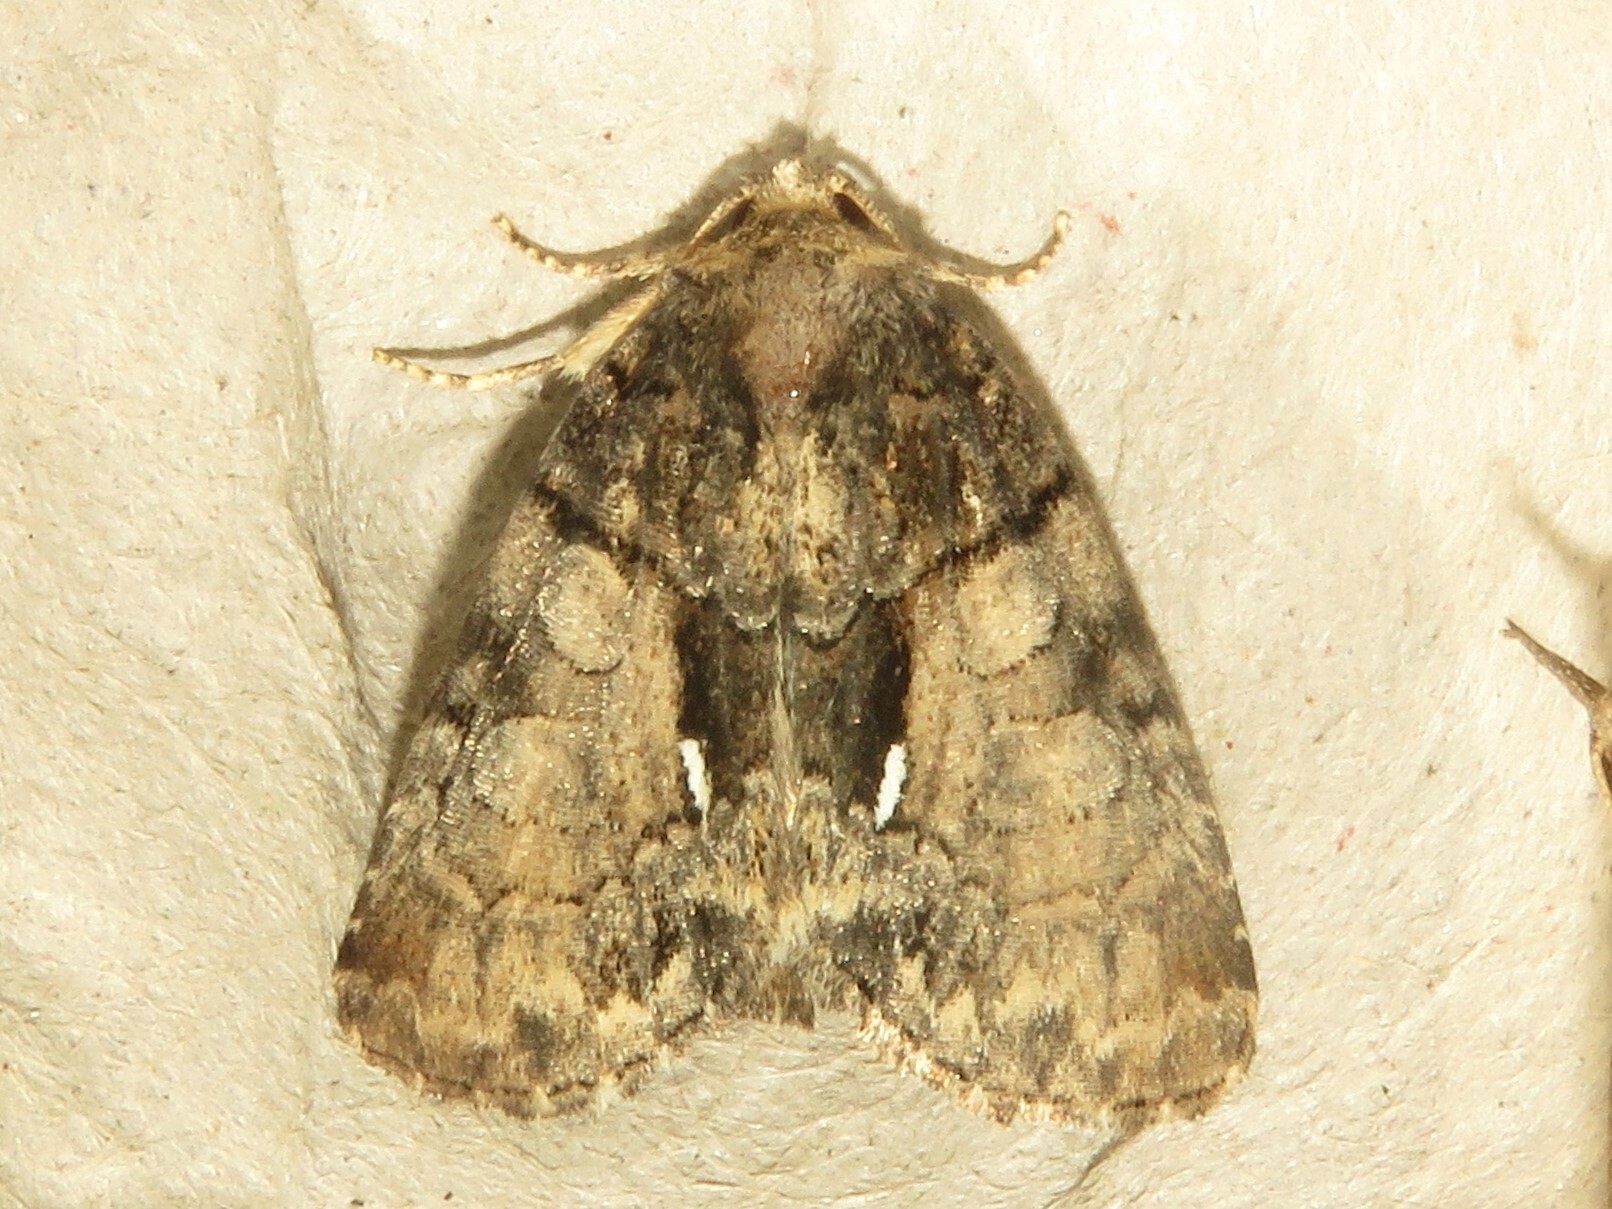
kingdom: Animalia
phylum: Arthropoda
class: Insecta
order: Lepidoptera
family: Noctuidae
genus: Chytonix
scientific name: Chytonix palliatricula
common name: Cloaked marvel
